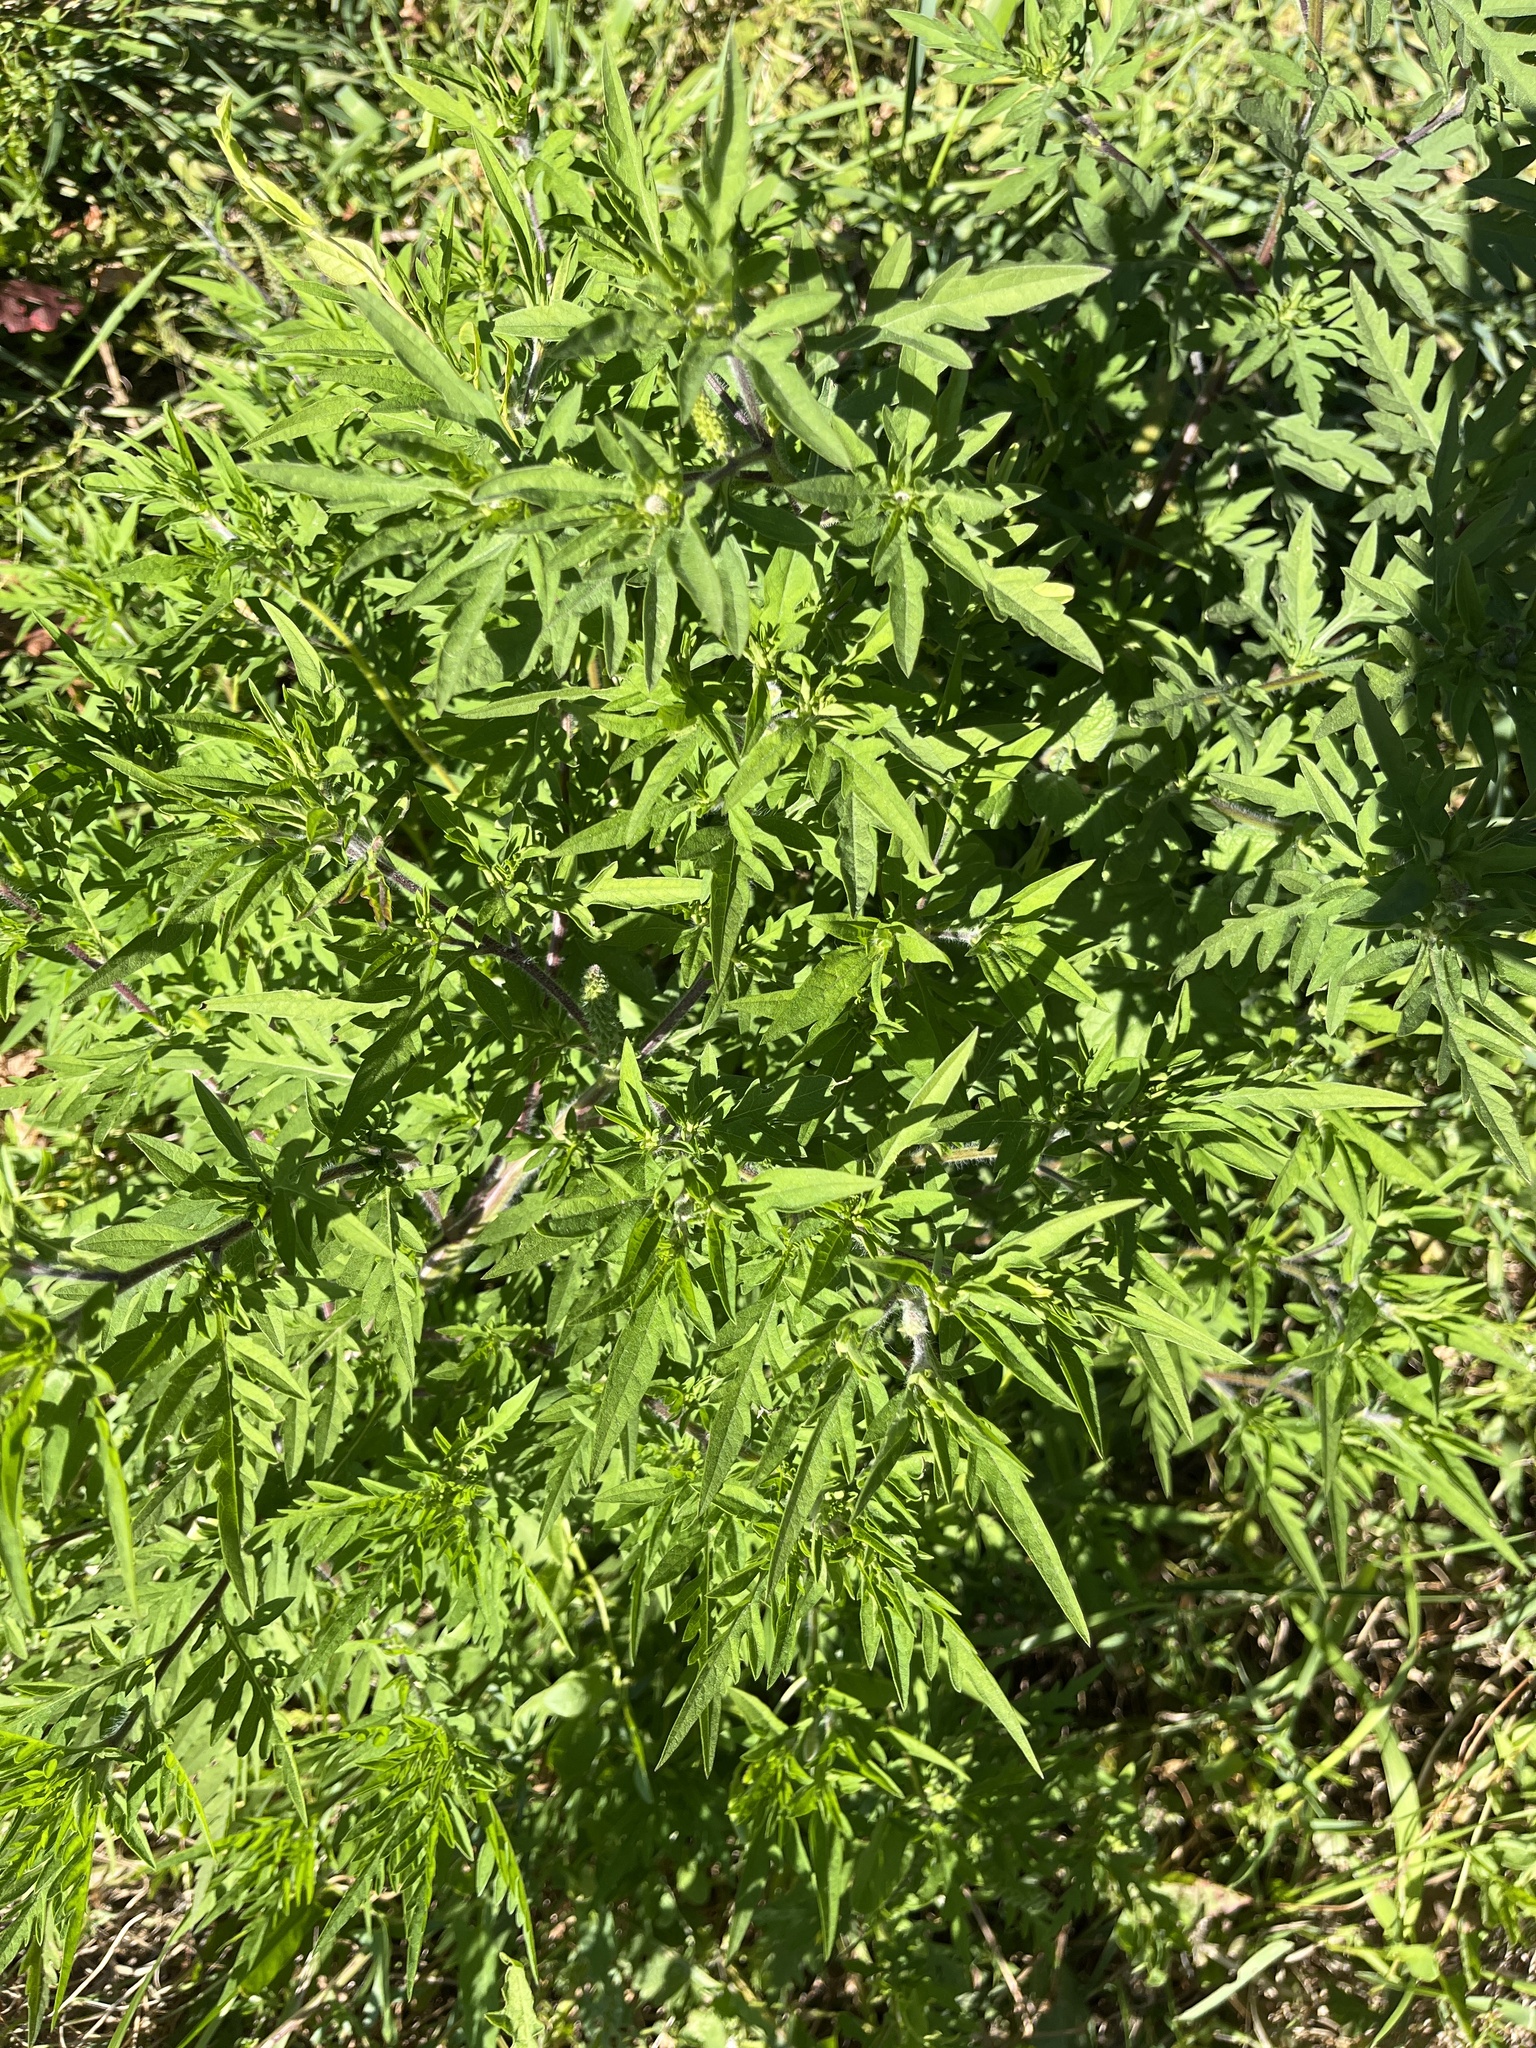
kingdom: Plantae
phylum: Tracheophyta
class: Magnoliopsida
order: Asterales
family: Asteraceae
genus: Ambrosia
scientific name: Ambrosia artemisiifolia
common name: Annual ragweed
